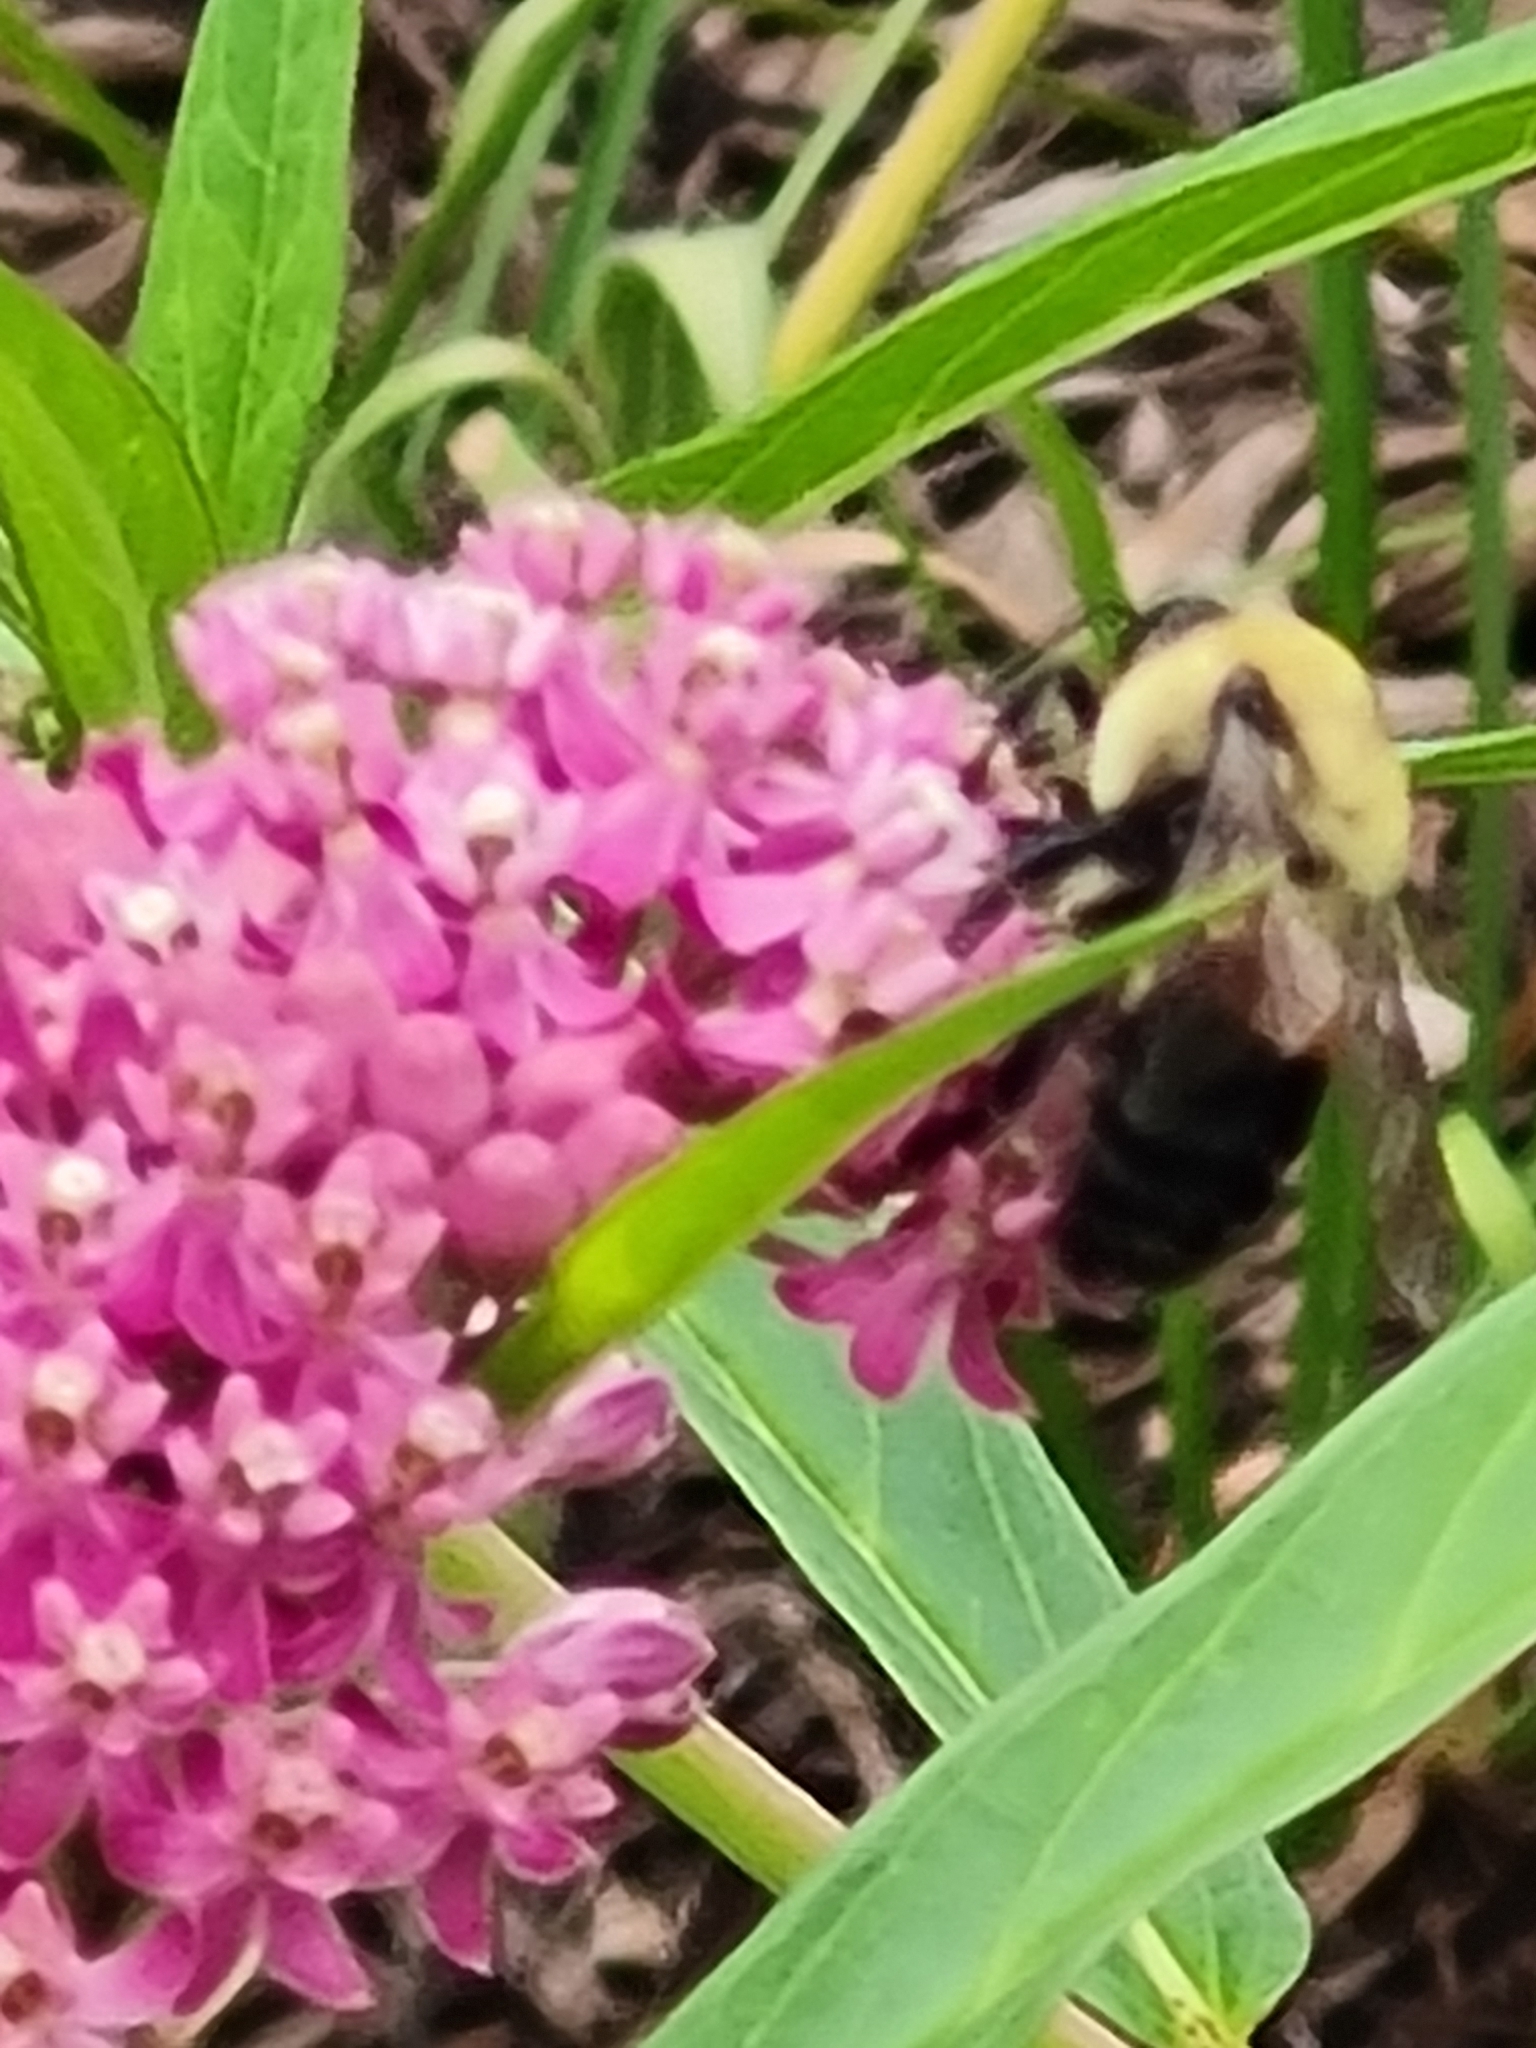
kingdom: Animalia
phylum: Arthropoda
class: Insecta
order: Hymenoptera
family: Apidae
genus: Bombus
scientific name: Bombus griseocollis
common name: Brown-belted bumble bee
